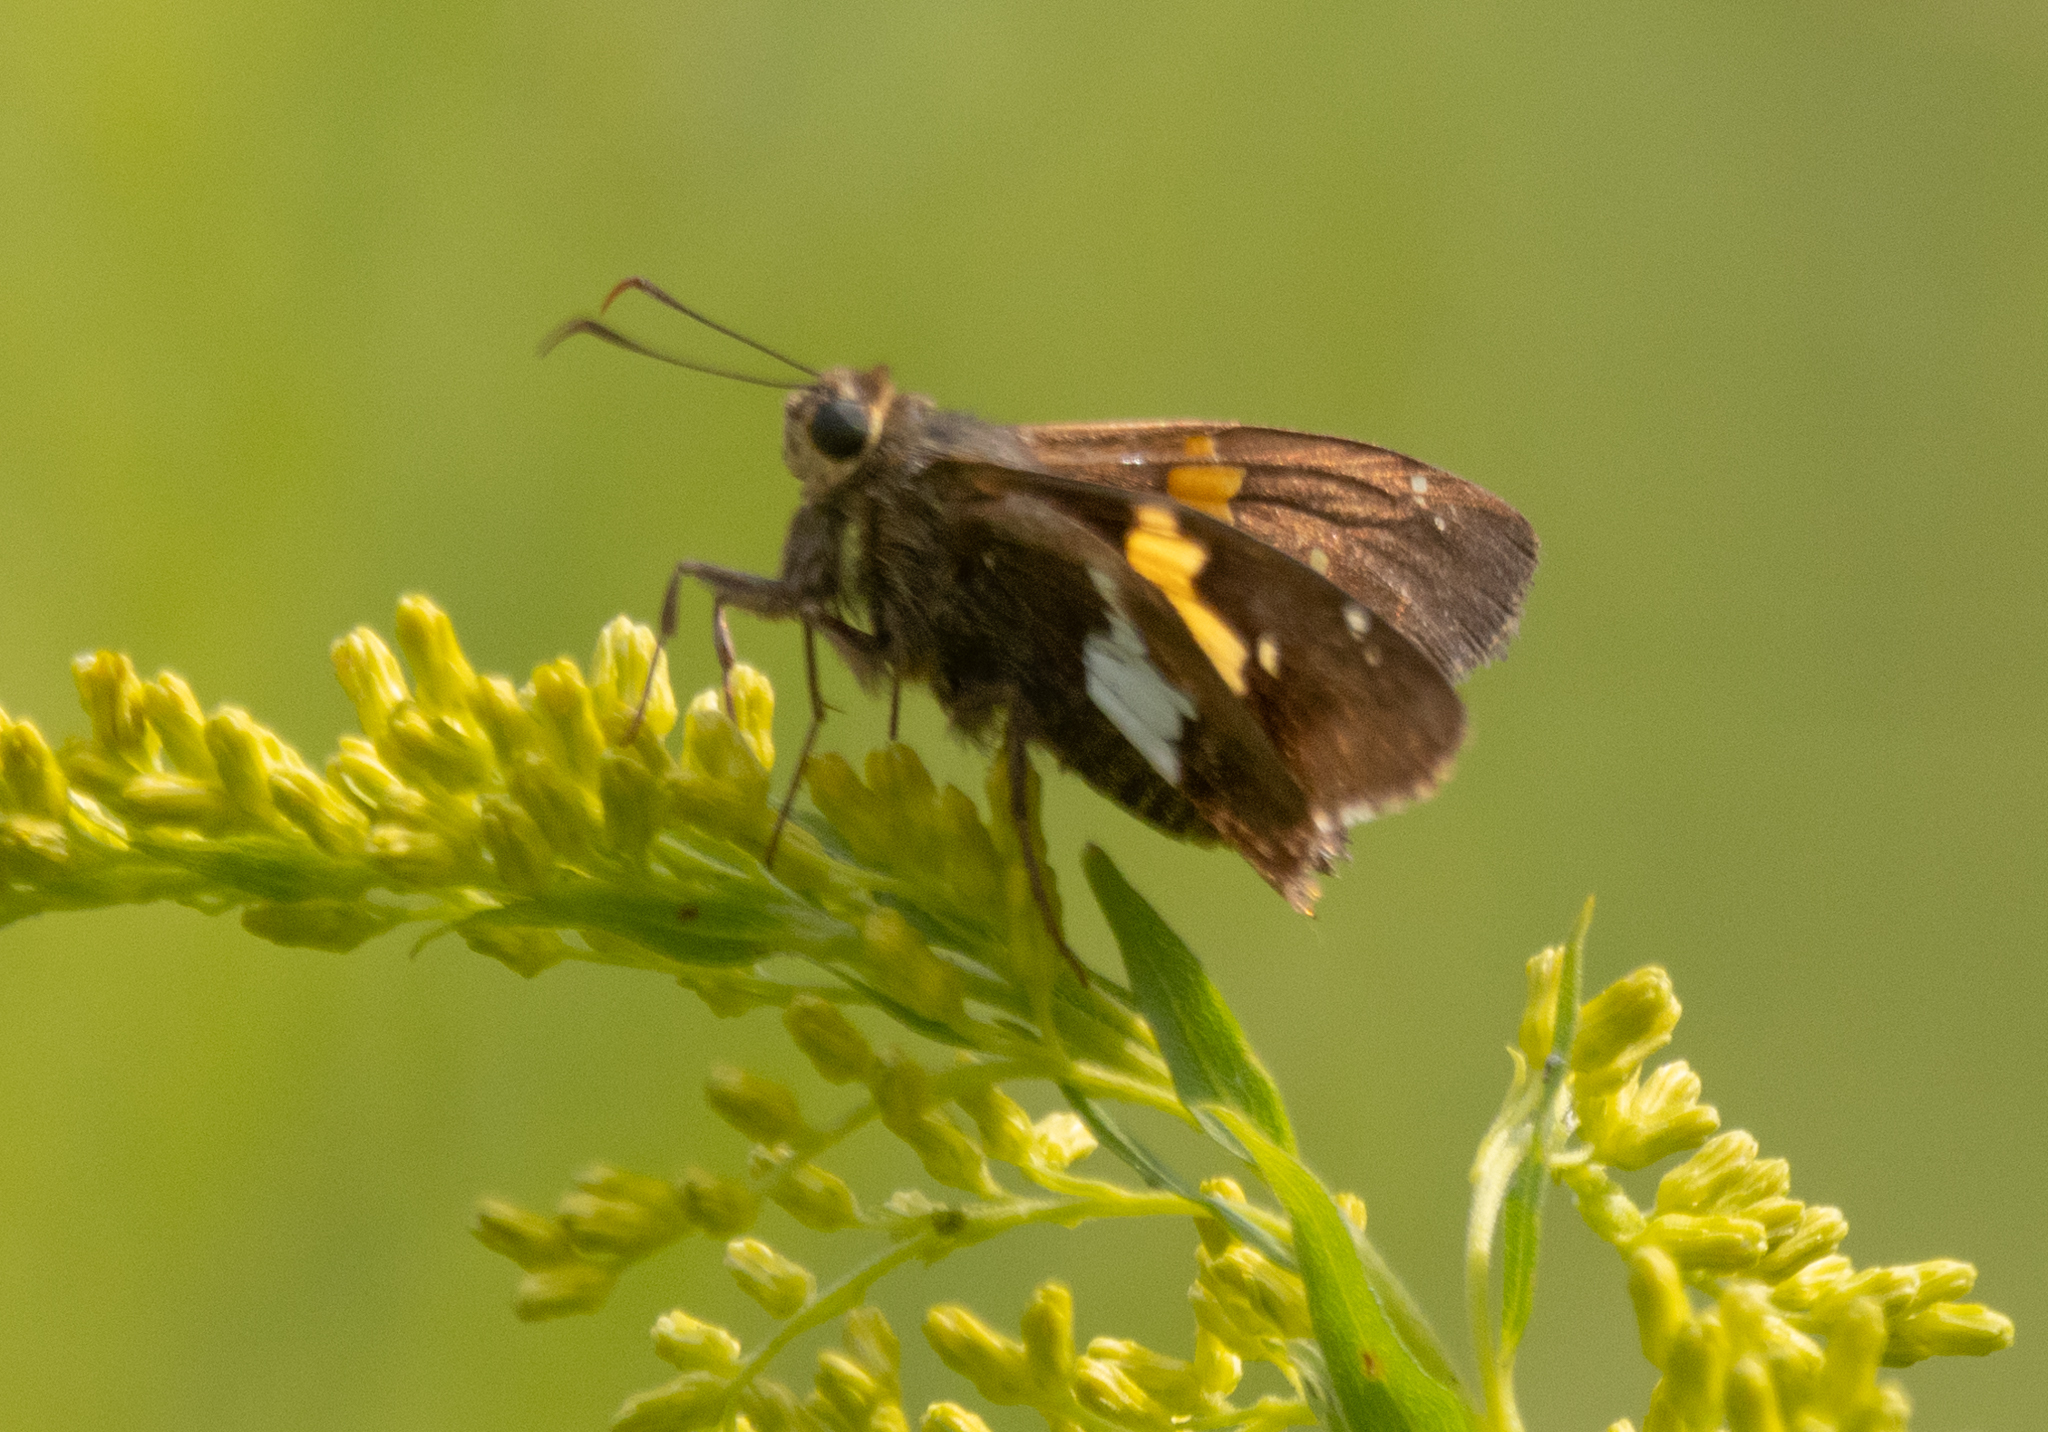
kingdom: Animalia
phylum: Arthropoda
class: Insecta
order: Lepidoptera
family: Hesperiidae
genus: Epargyreus
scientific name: Epargyreus clarus
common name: Silver-spotted skipper
